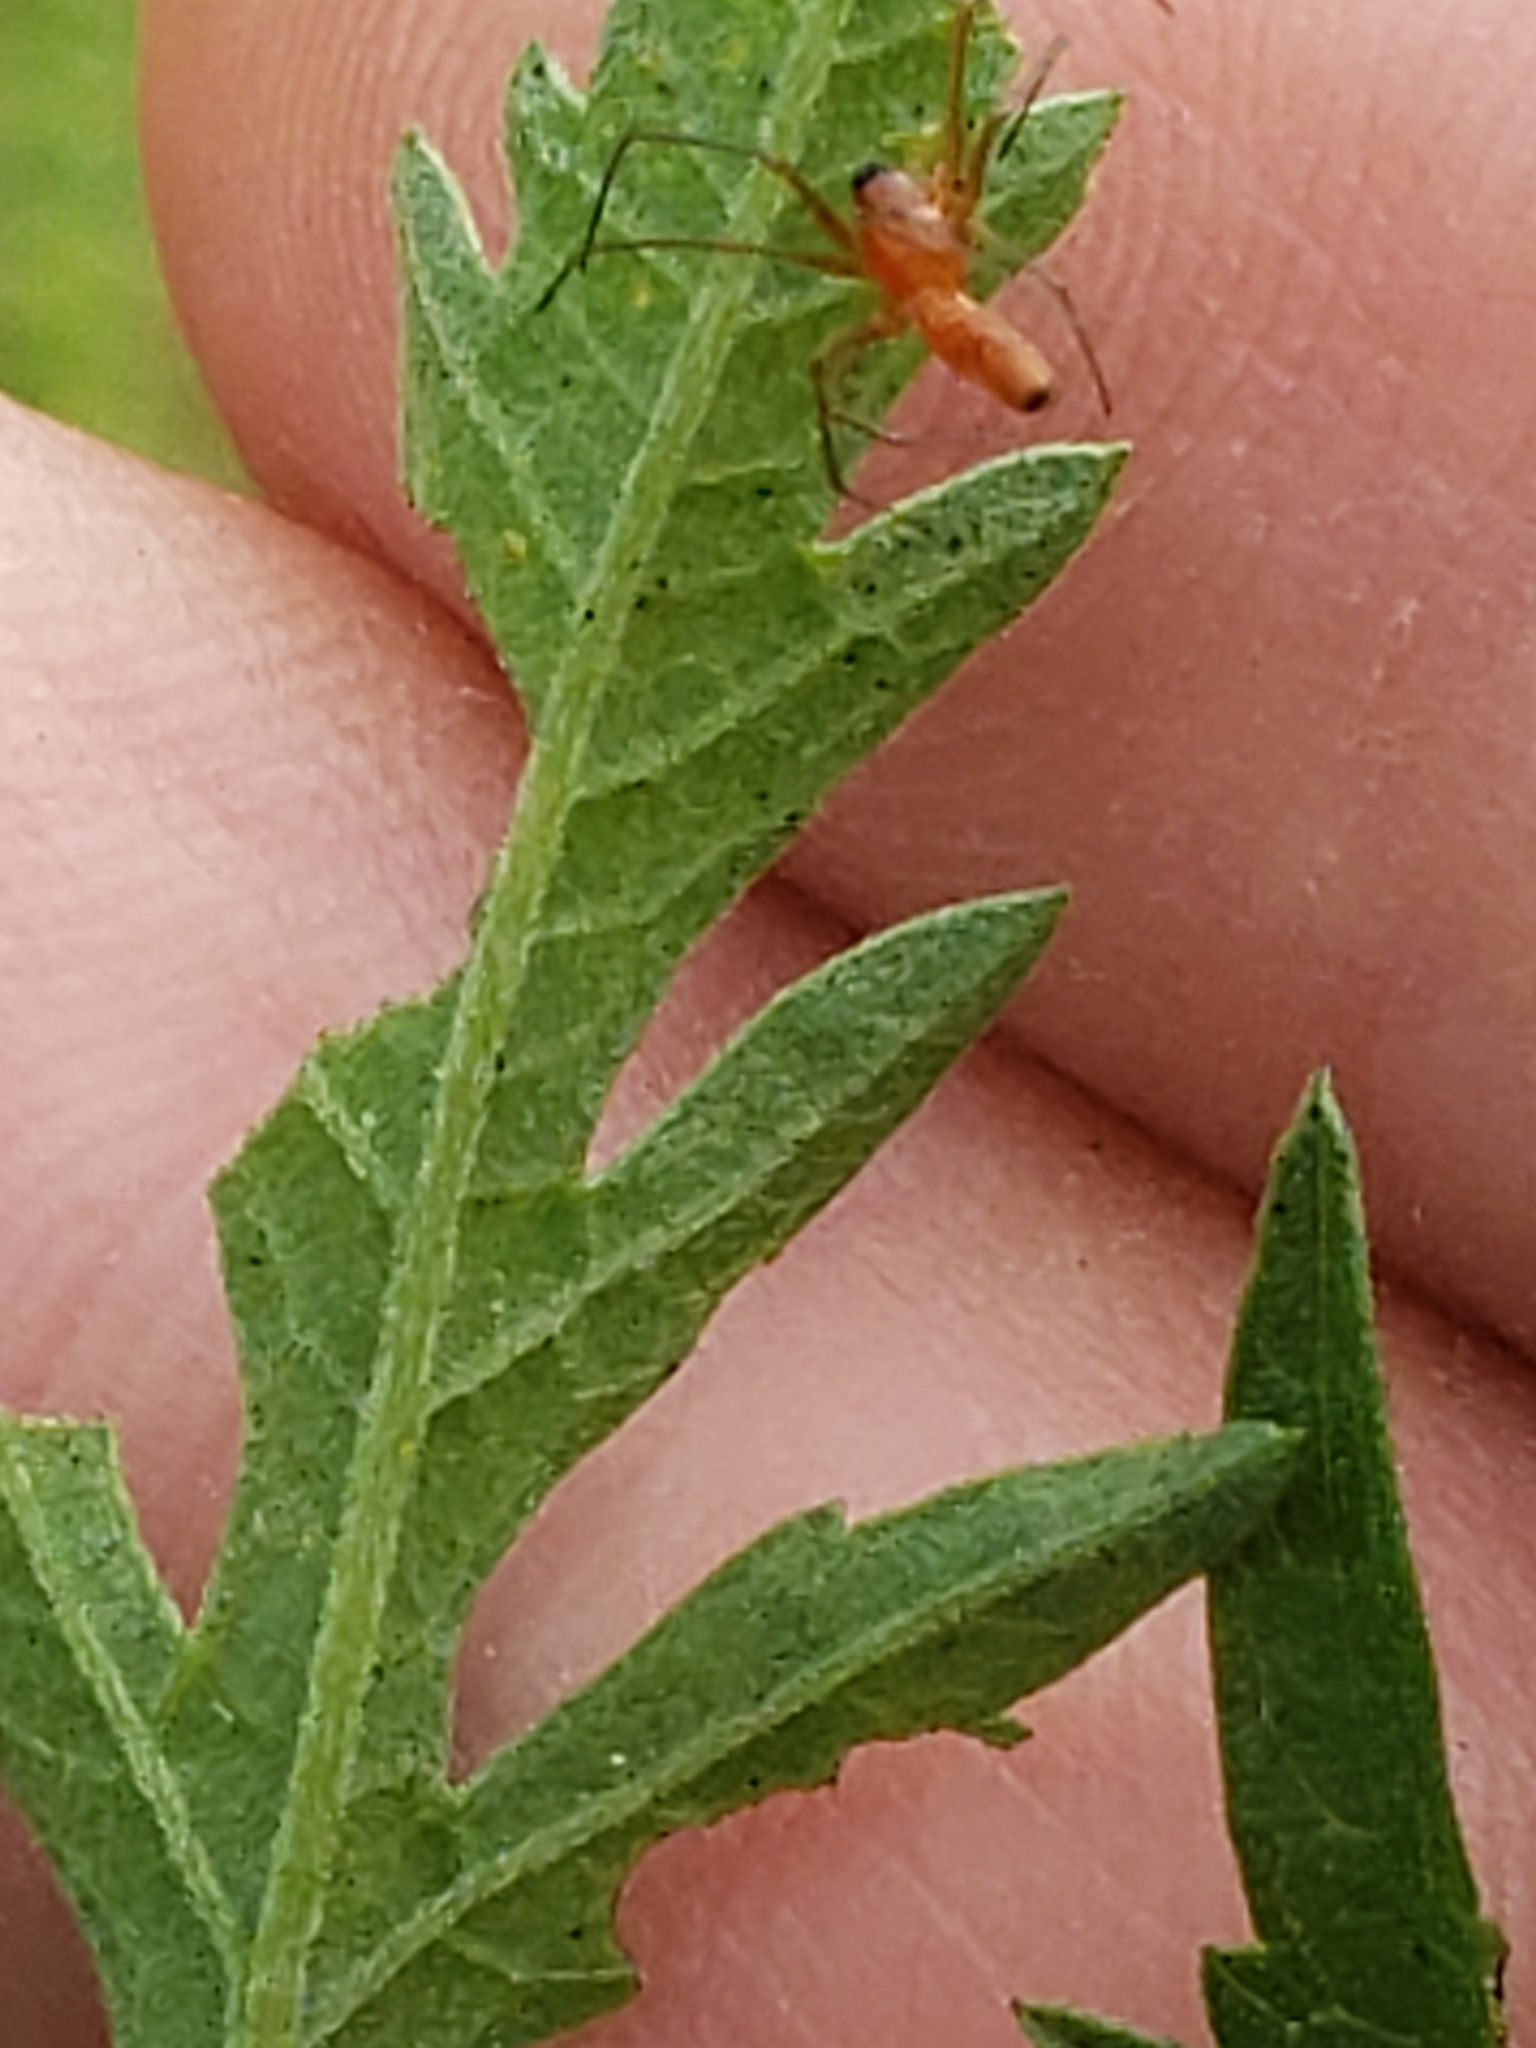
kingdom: Animalia
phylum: Arthropoda
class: Arachnida
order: Araneae
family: Linyphiidae
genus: Florinda
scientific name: Florinda coccinea
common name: Black-tailed red sheetweaver
